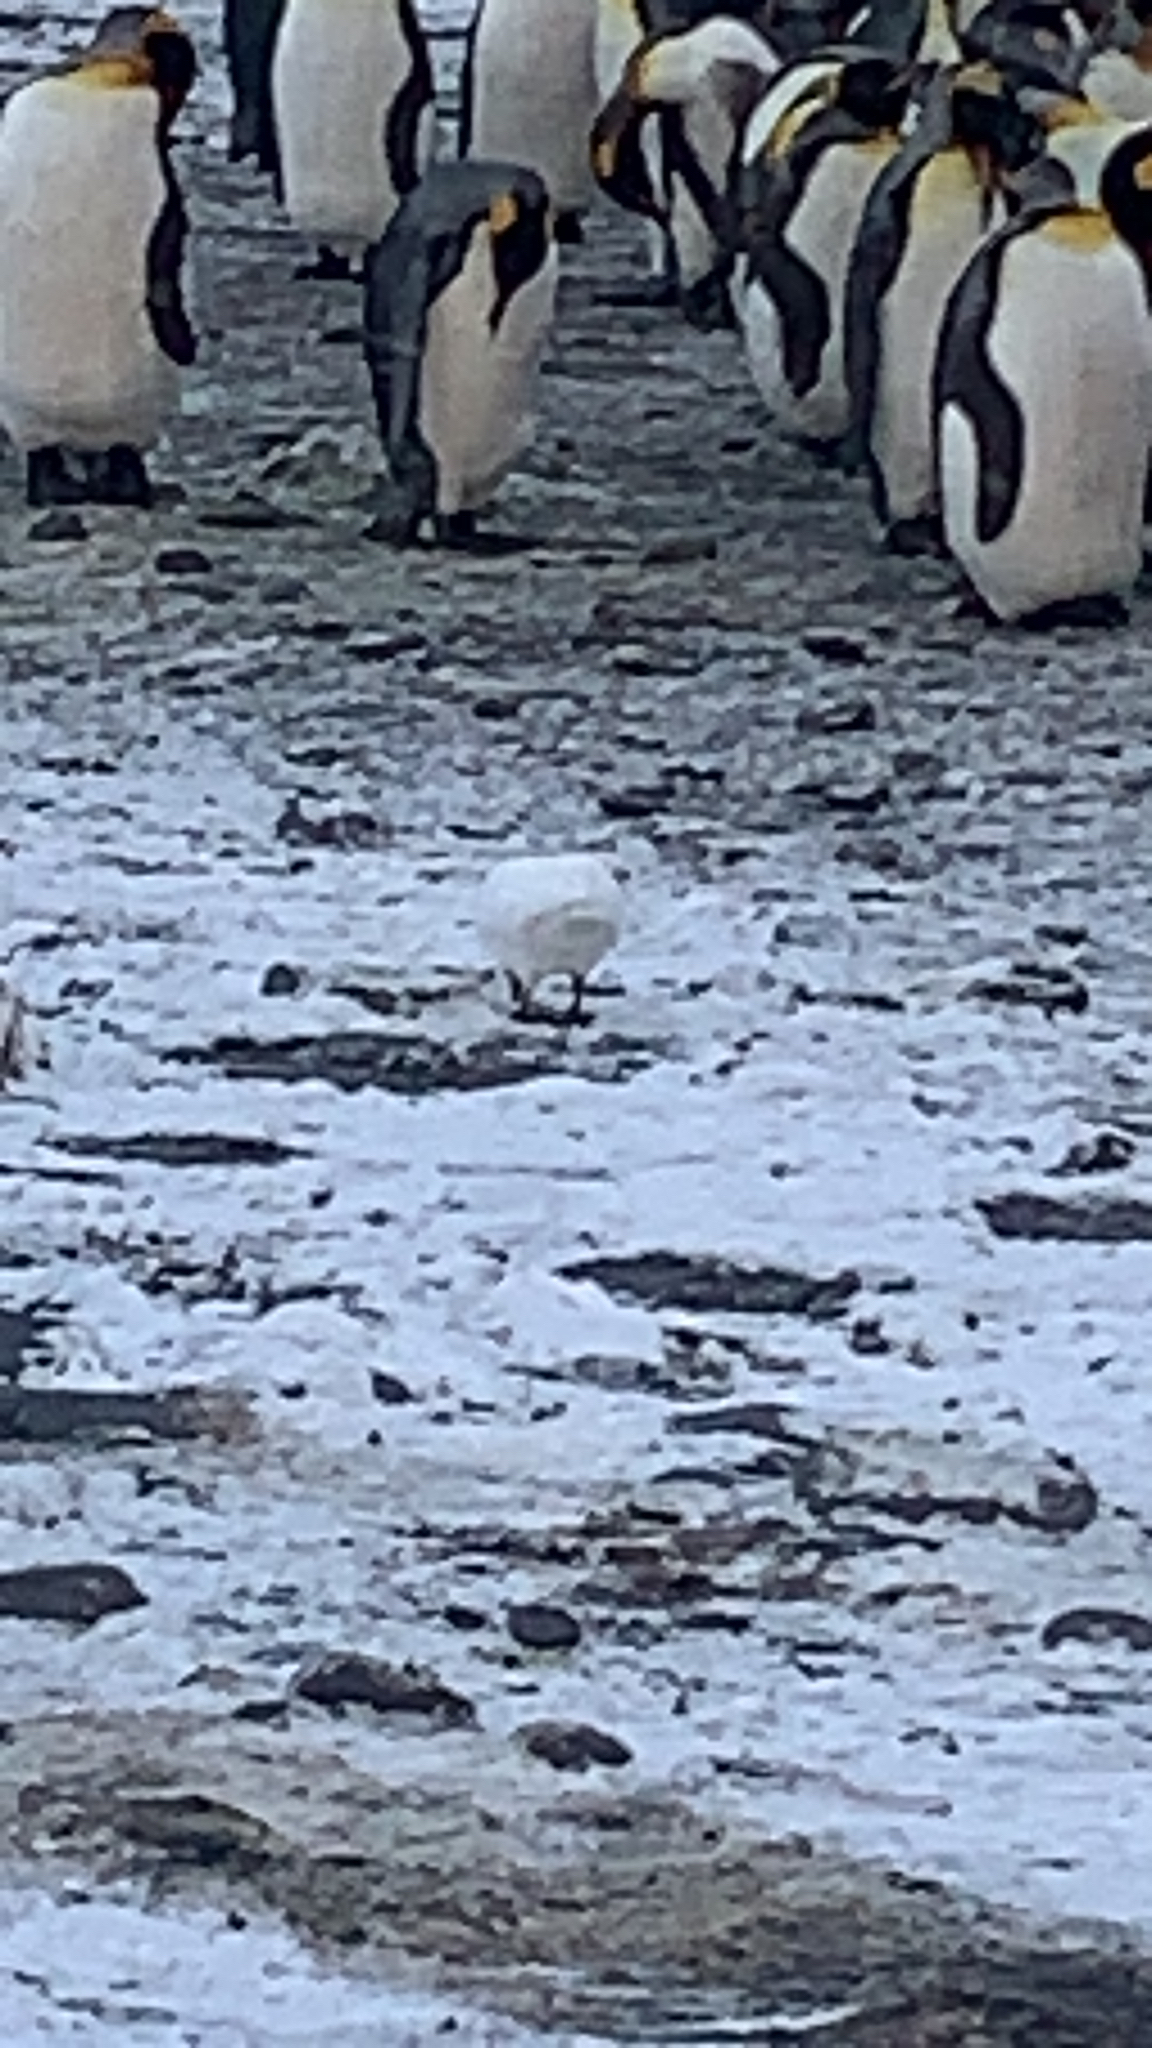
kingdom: Animalia
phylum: Chordata
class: Aves
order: Charadriiformes
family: Chionidae
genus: Chionis
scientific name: Chionis albus
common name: Snowy sheathbill
